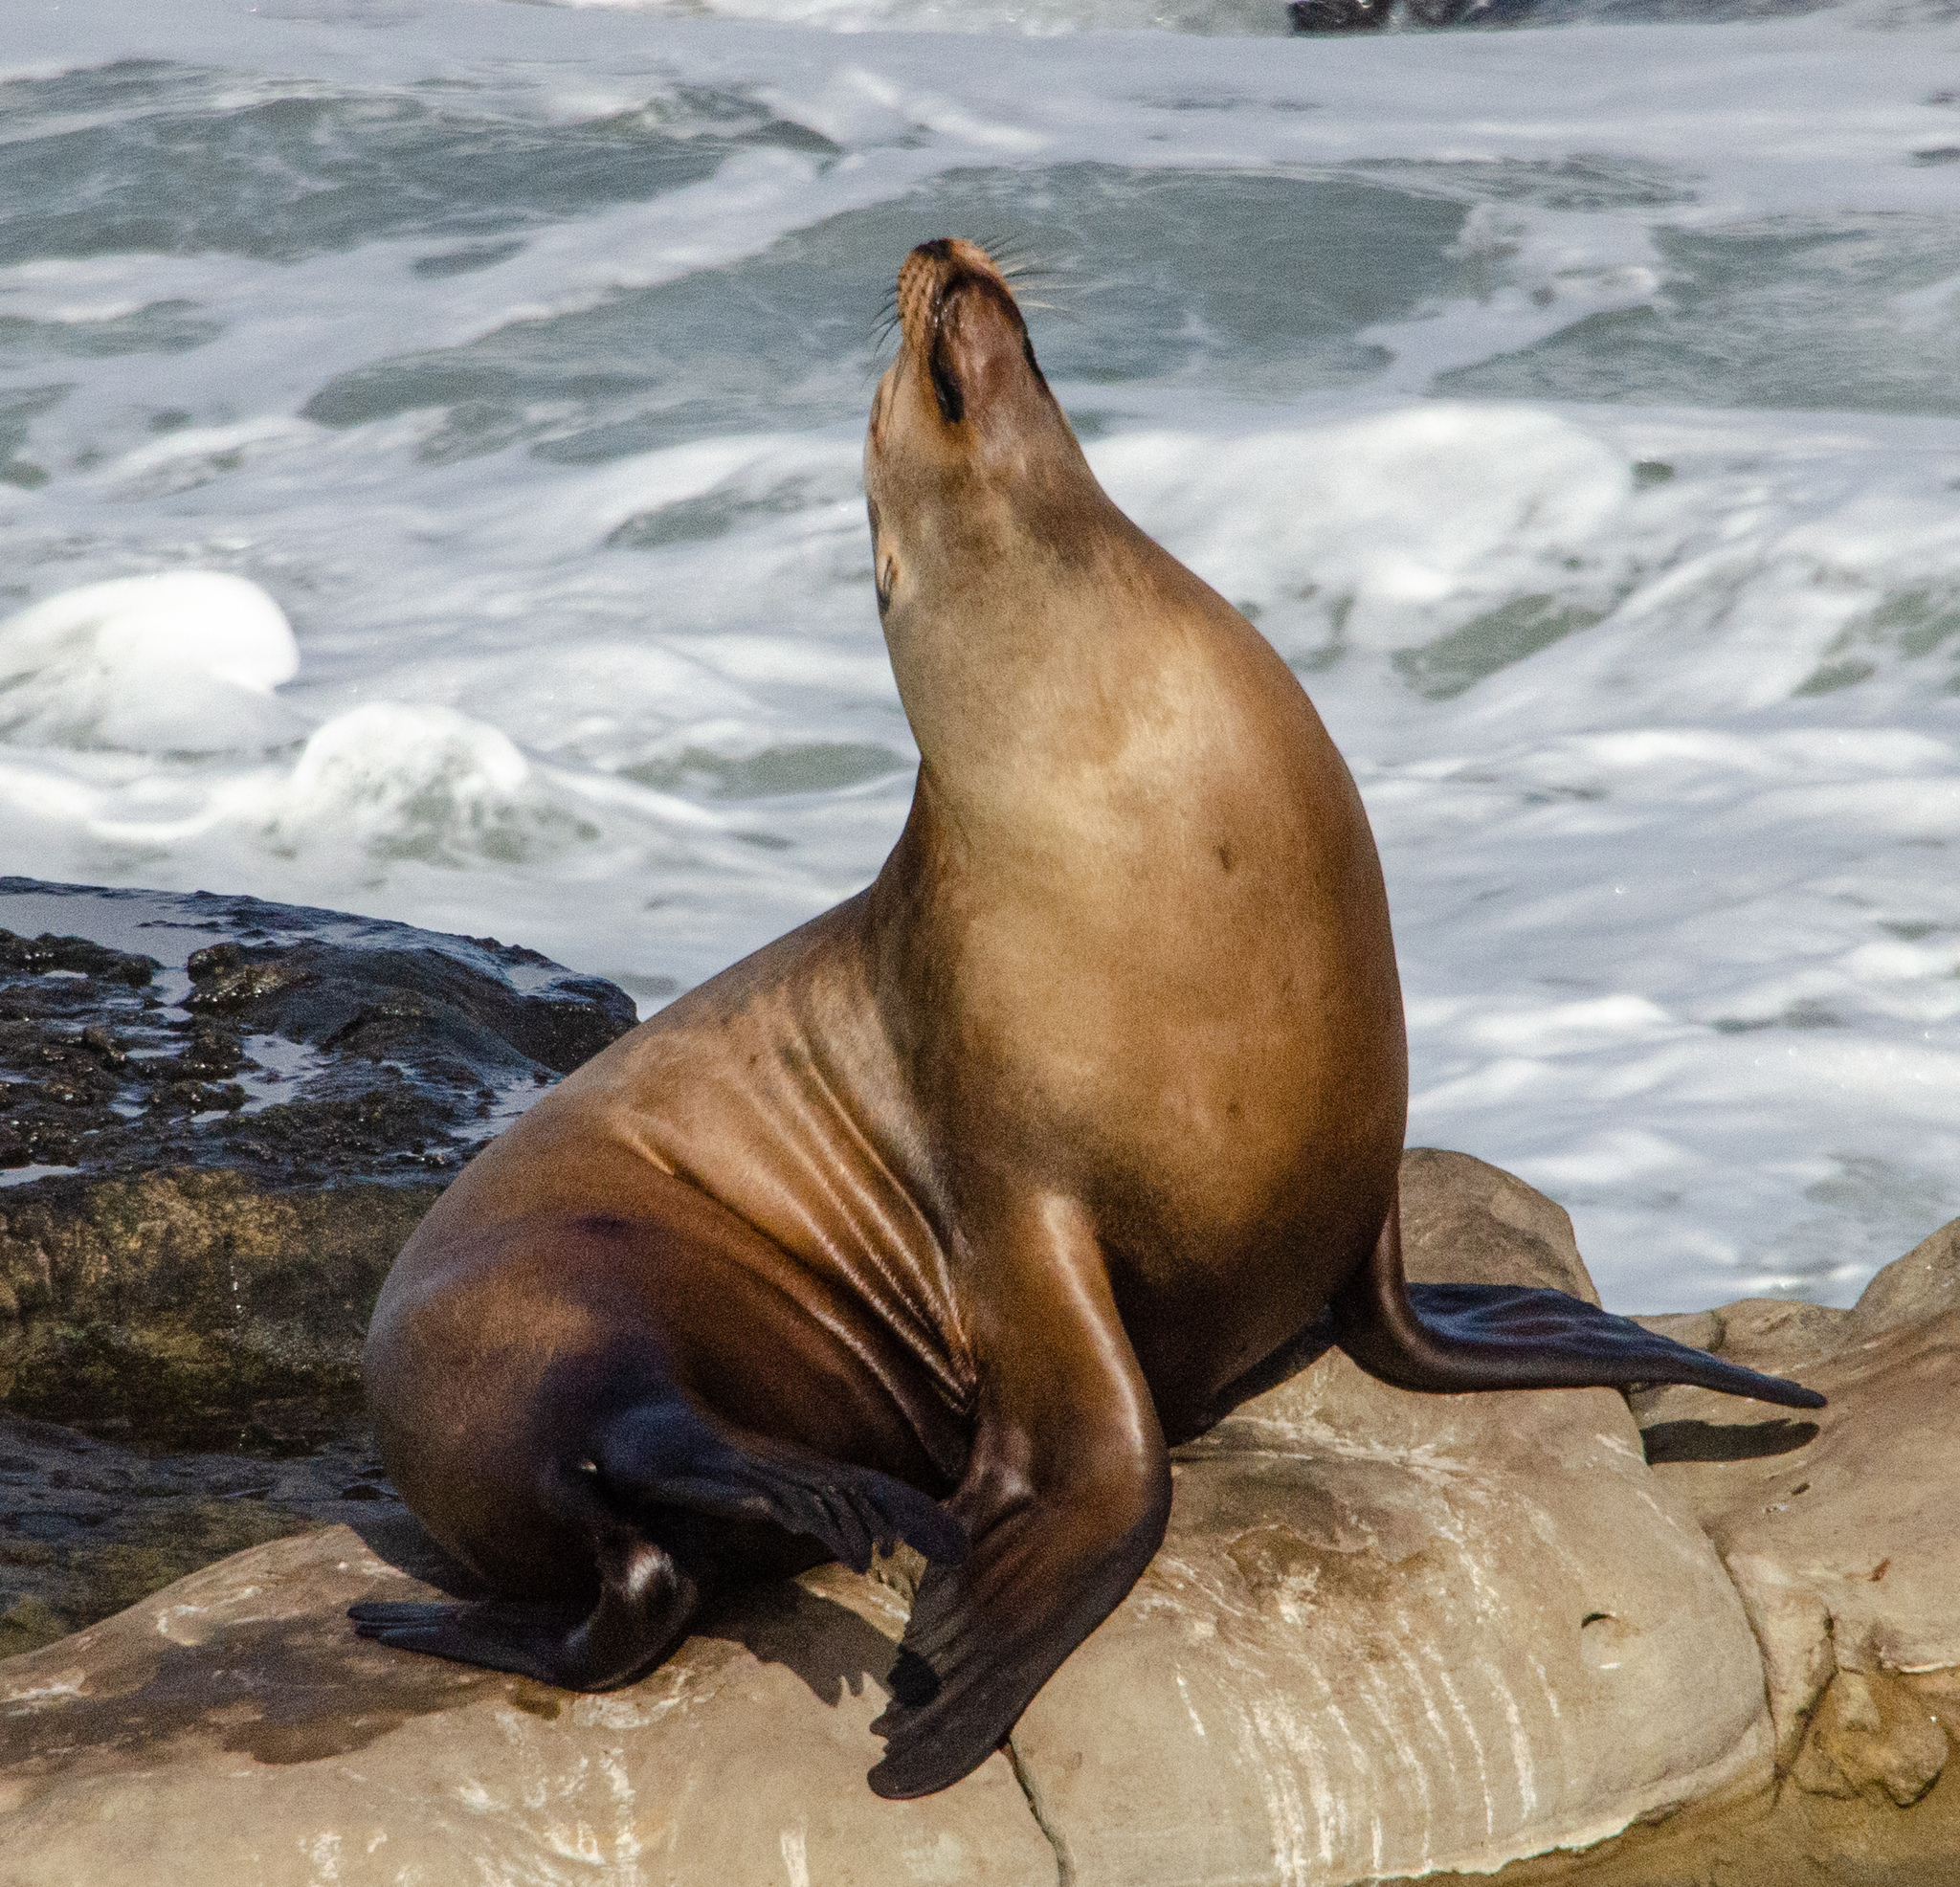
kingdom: Animalia
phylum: Chordata
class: Mammalia
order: Carnivora
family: Otariidae
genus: Zalophus
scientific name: Zalophus californianus
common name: California sea lion
